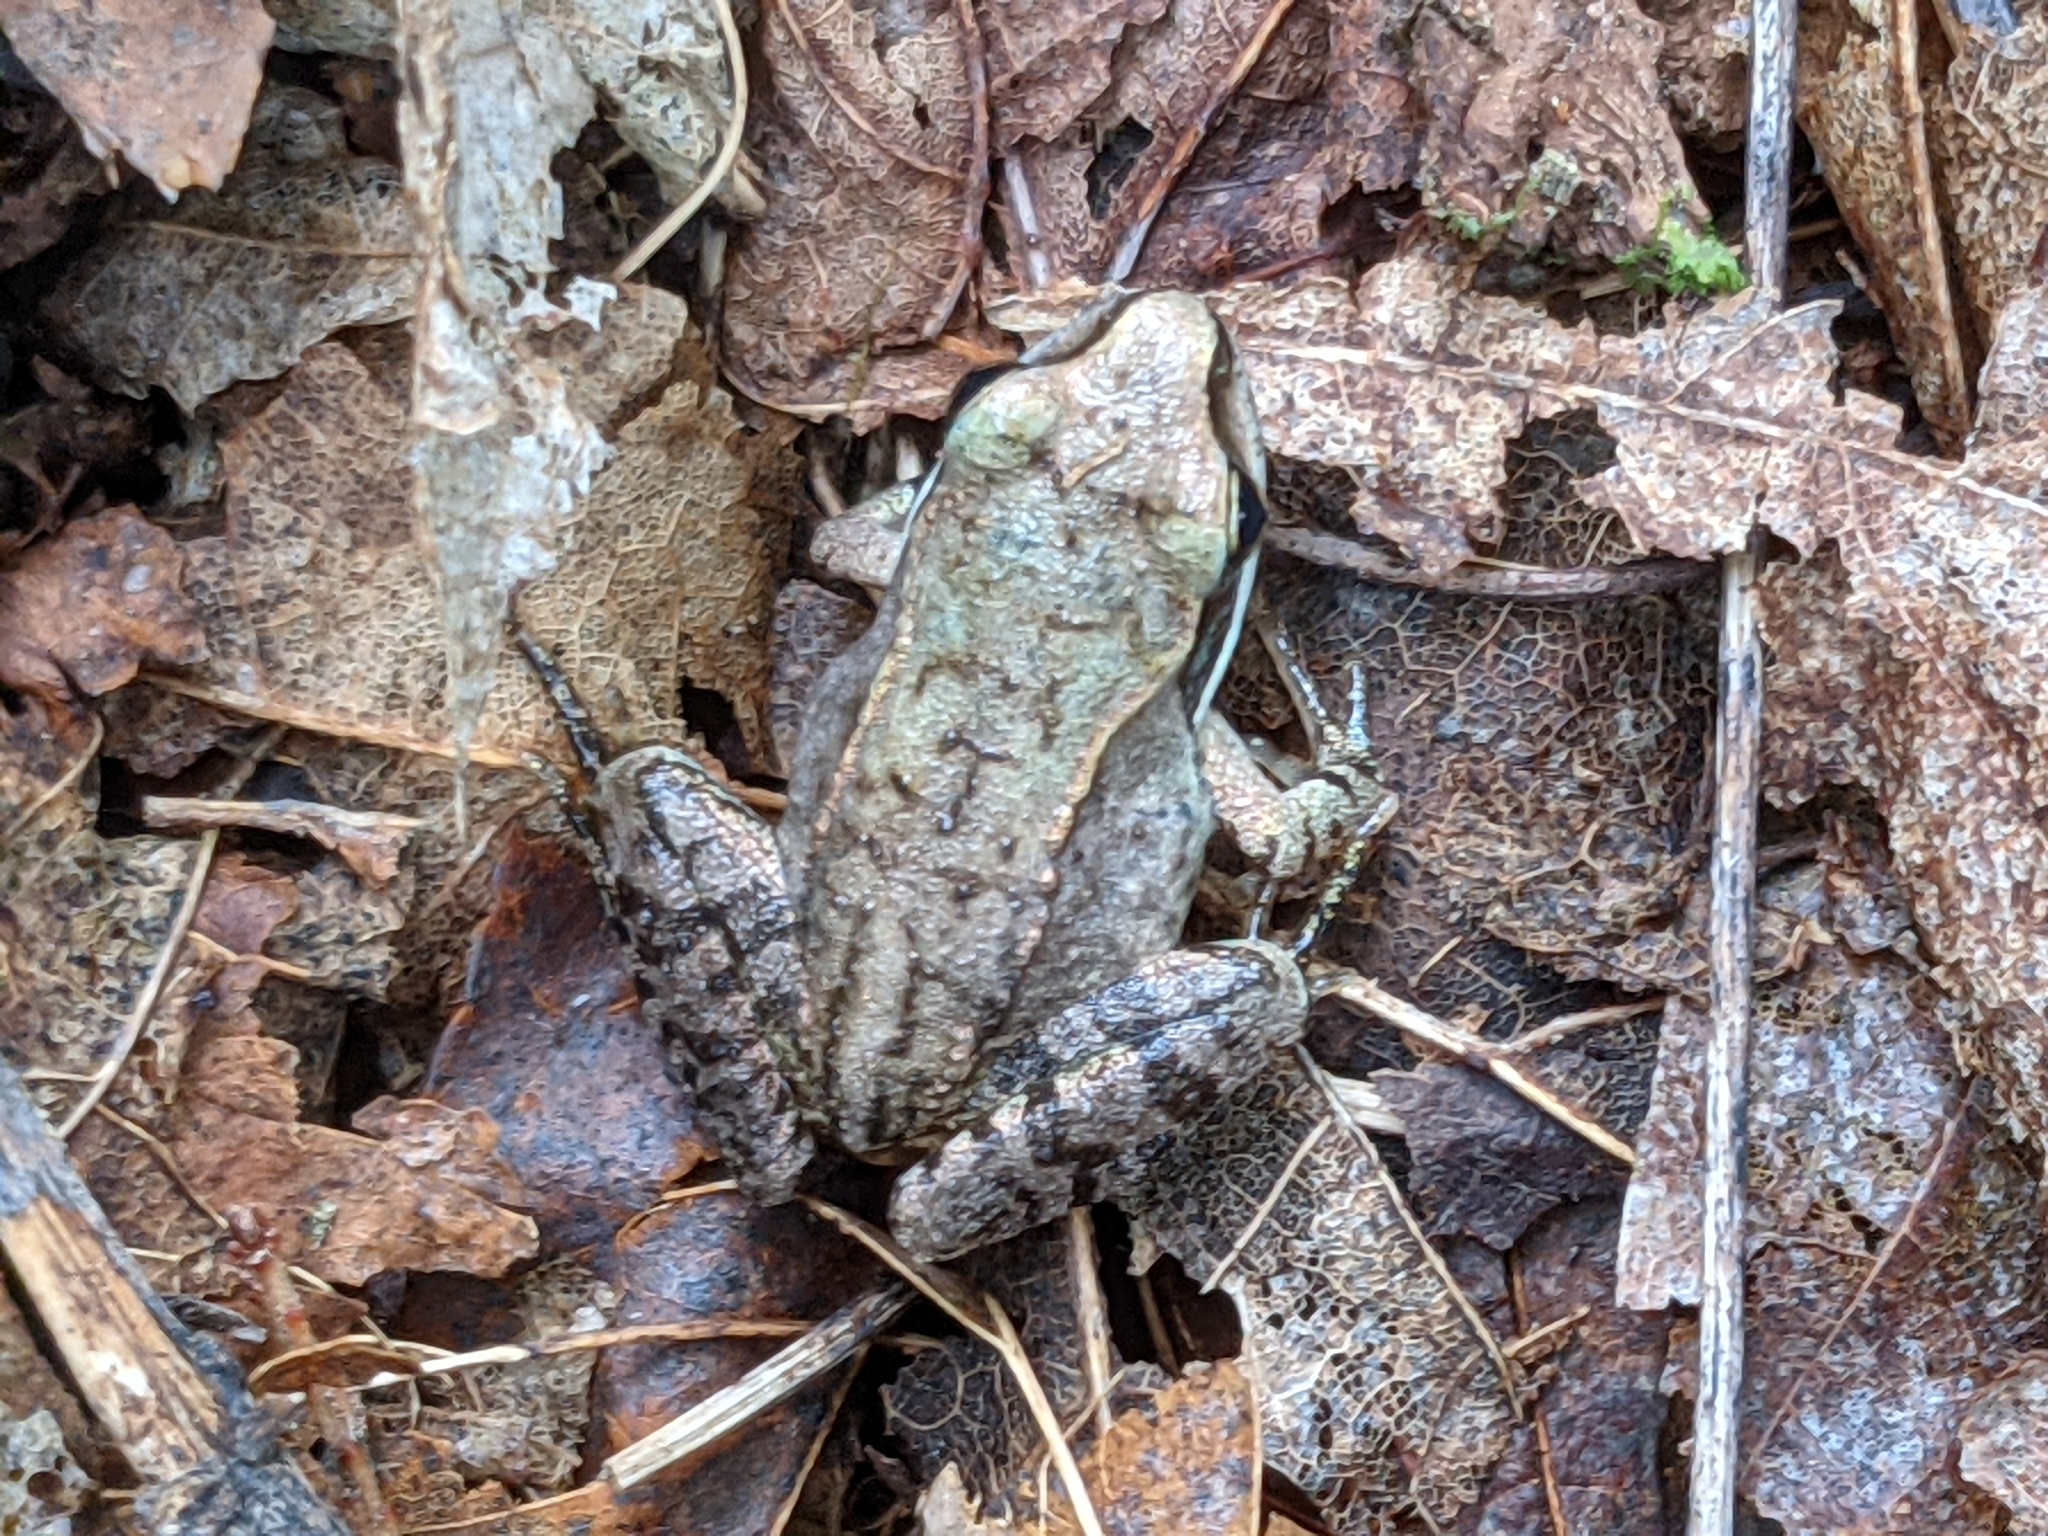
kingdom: Animalia
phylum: Chordata
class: Amphibia
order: Anura
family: Ranidae
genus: Lithobates
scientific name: Lithobates sylvaticus
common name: Wood frog
